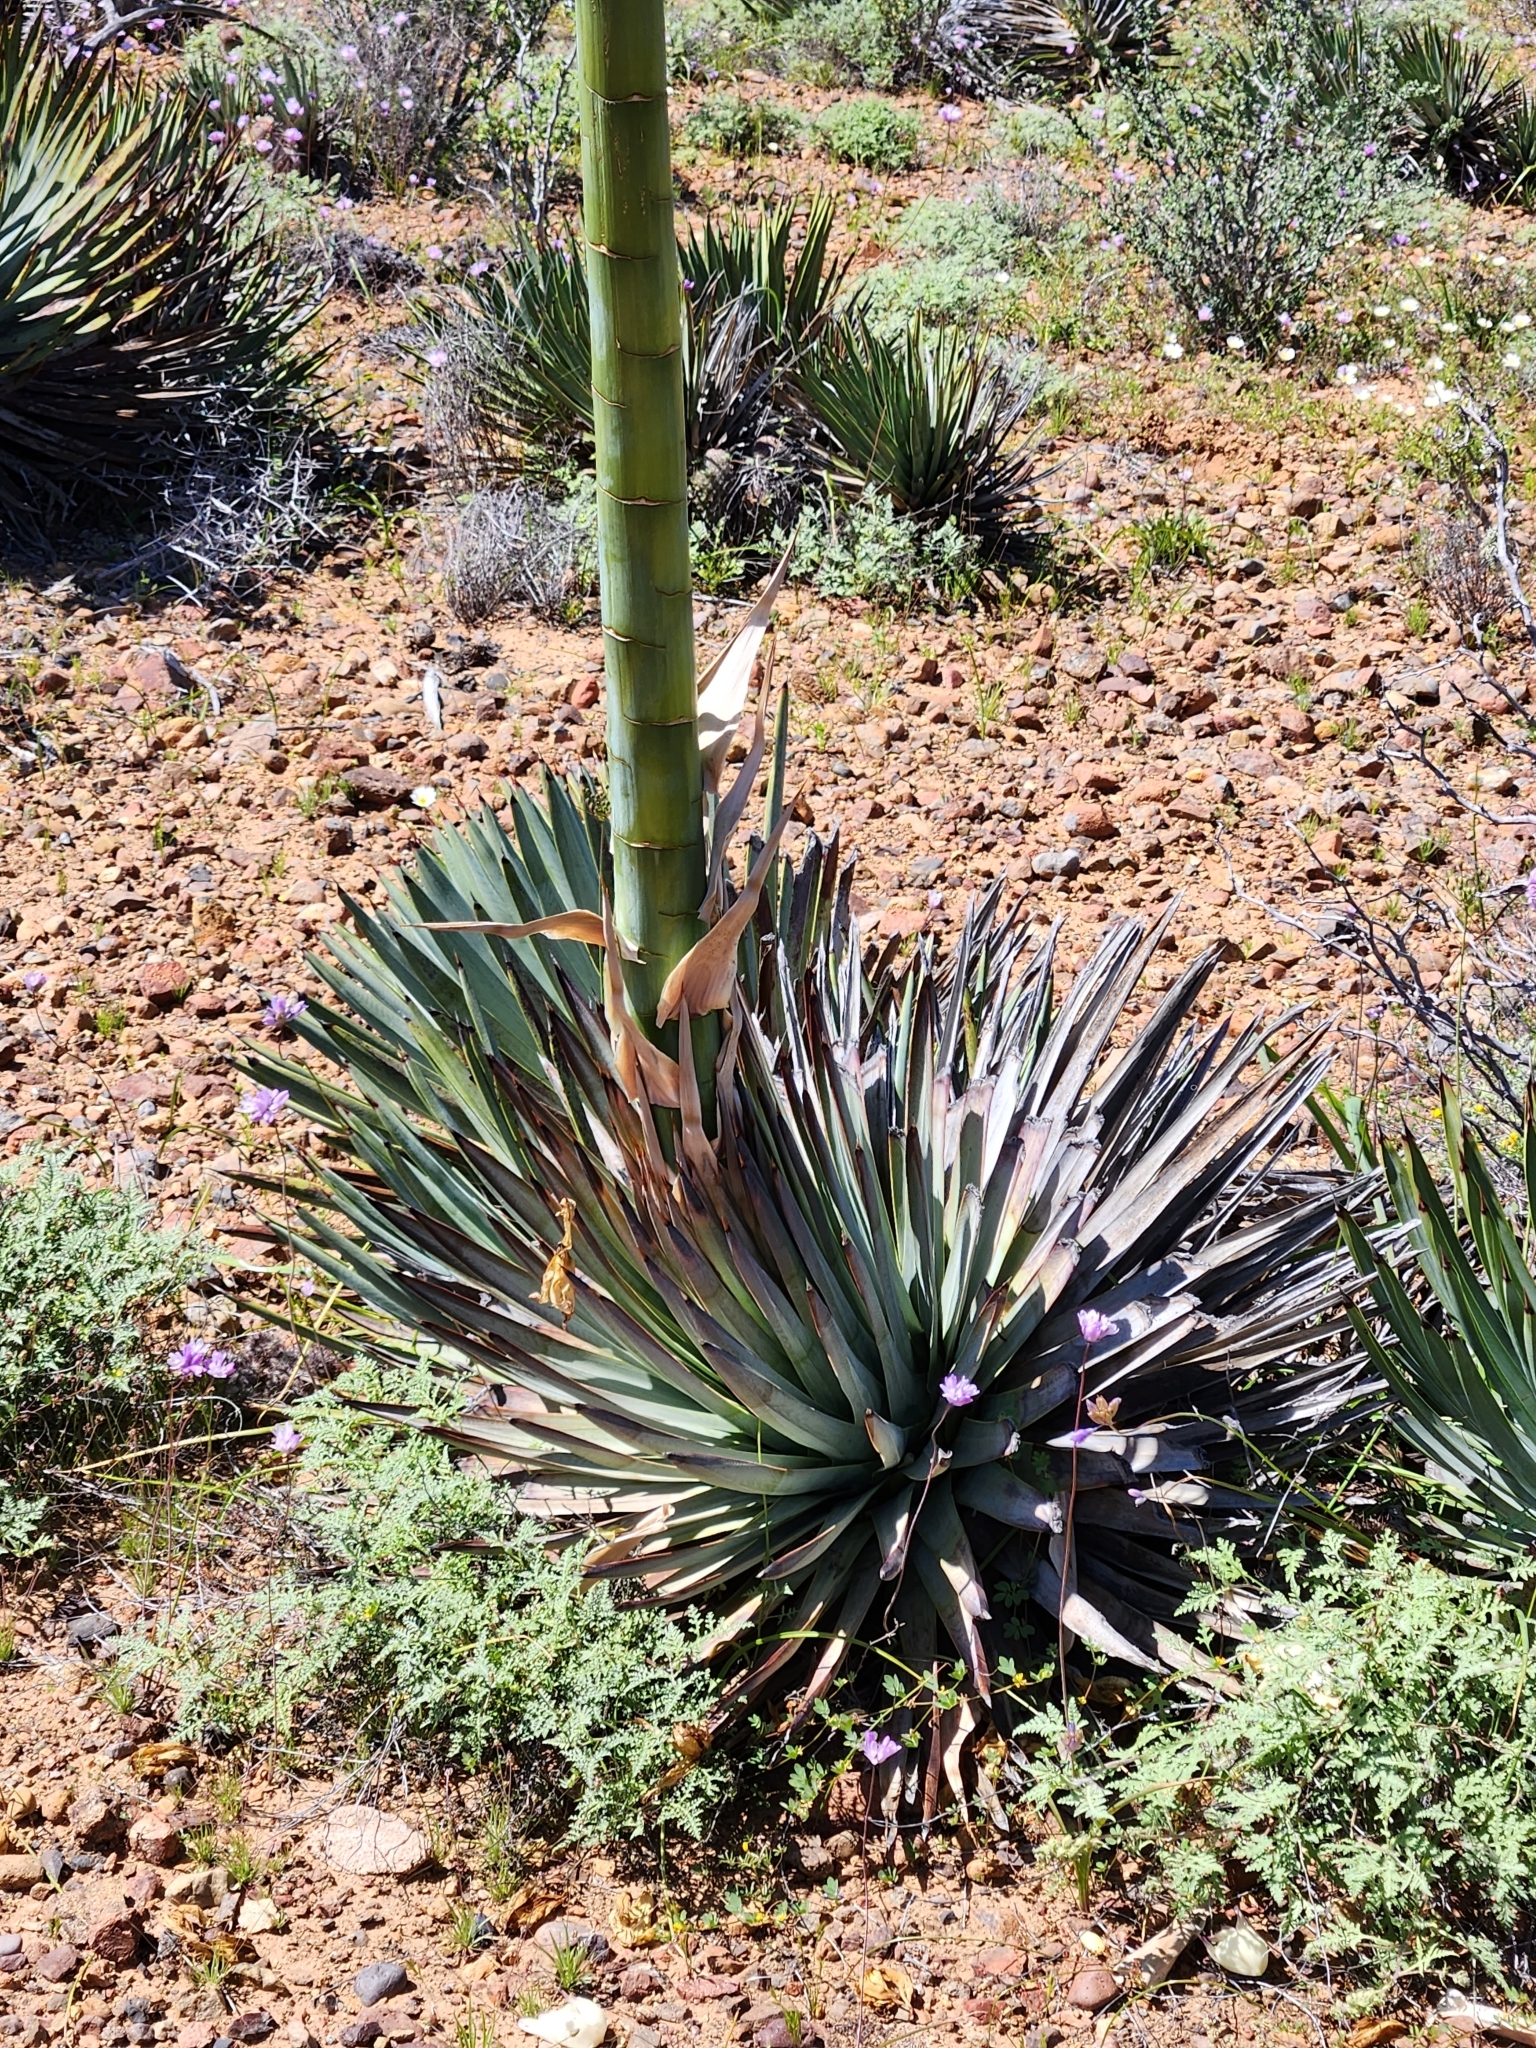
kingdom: Plantae
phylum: Tracheophyta
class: Liliopsida
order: Asparagales
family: Asparagaceae
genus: Hesperoyucca
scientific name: Hesperoyucca whipplei
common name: Our lord's-candle
